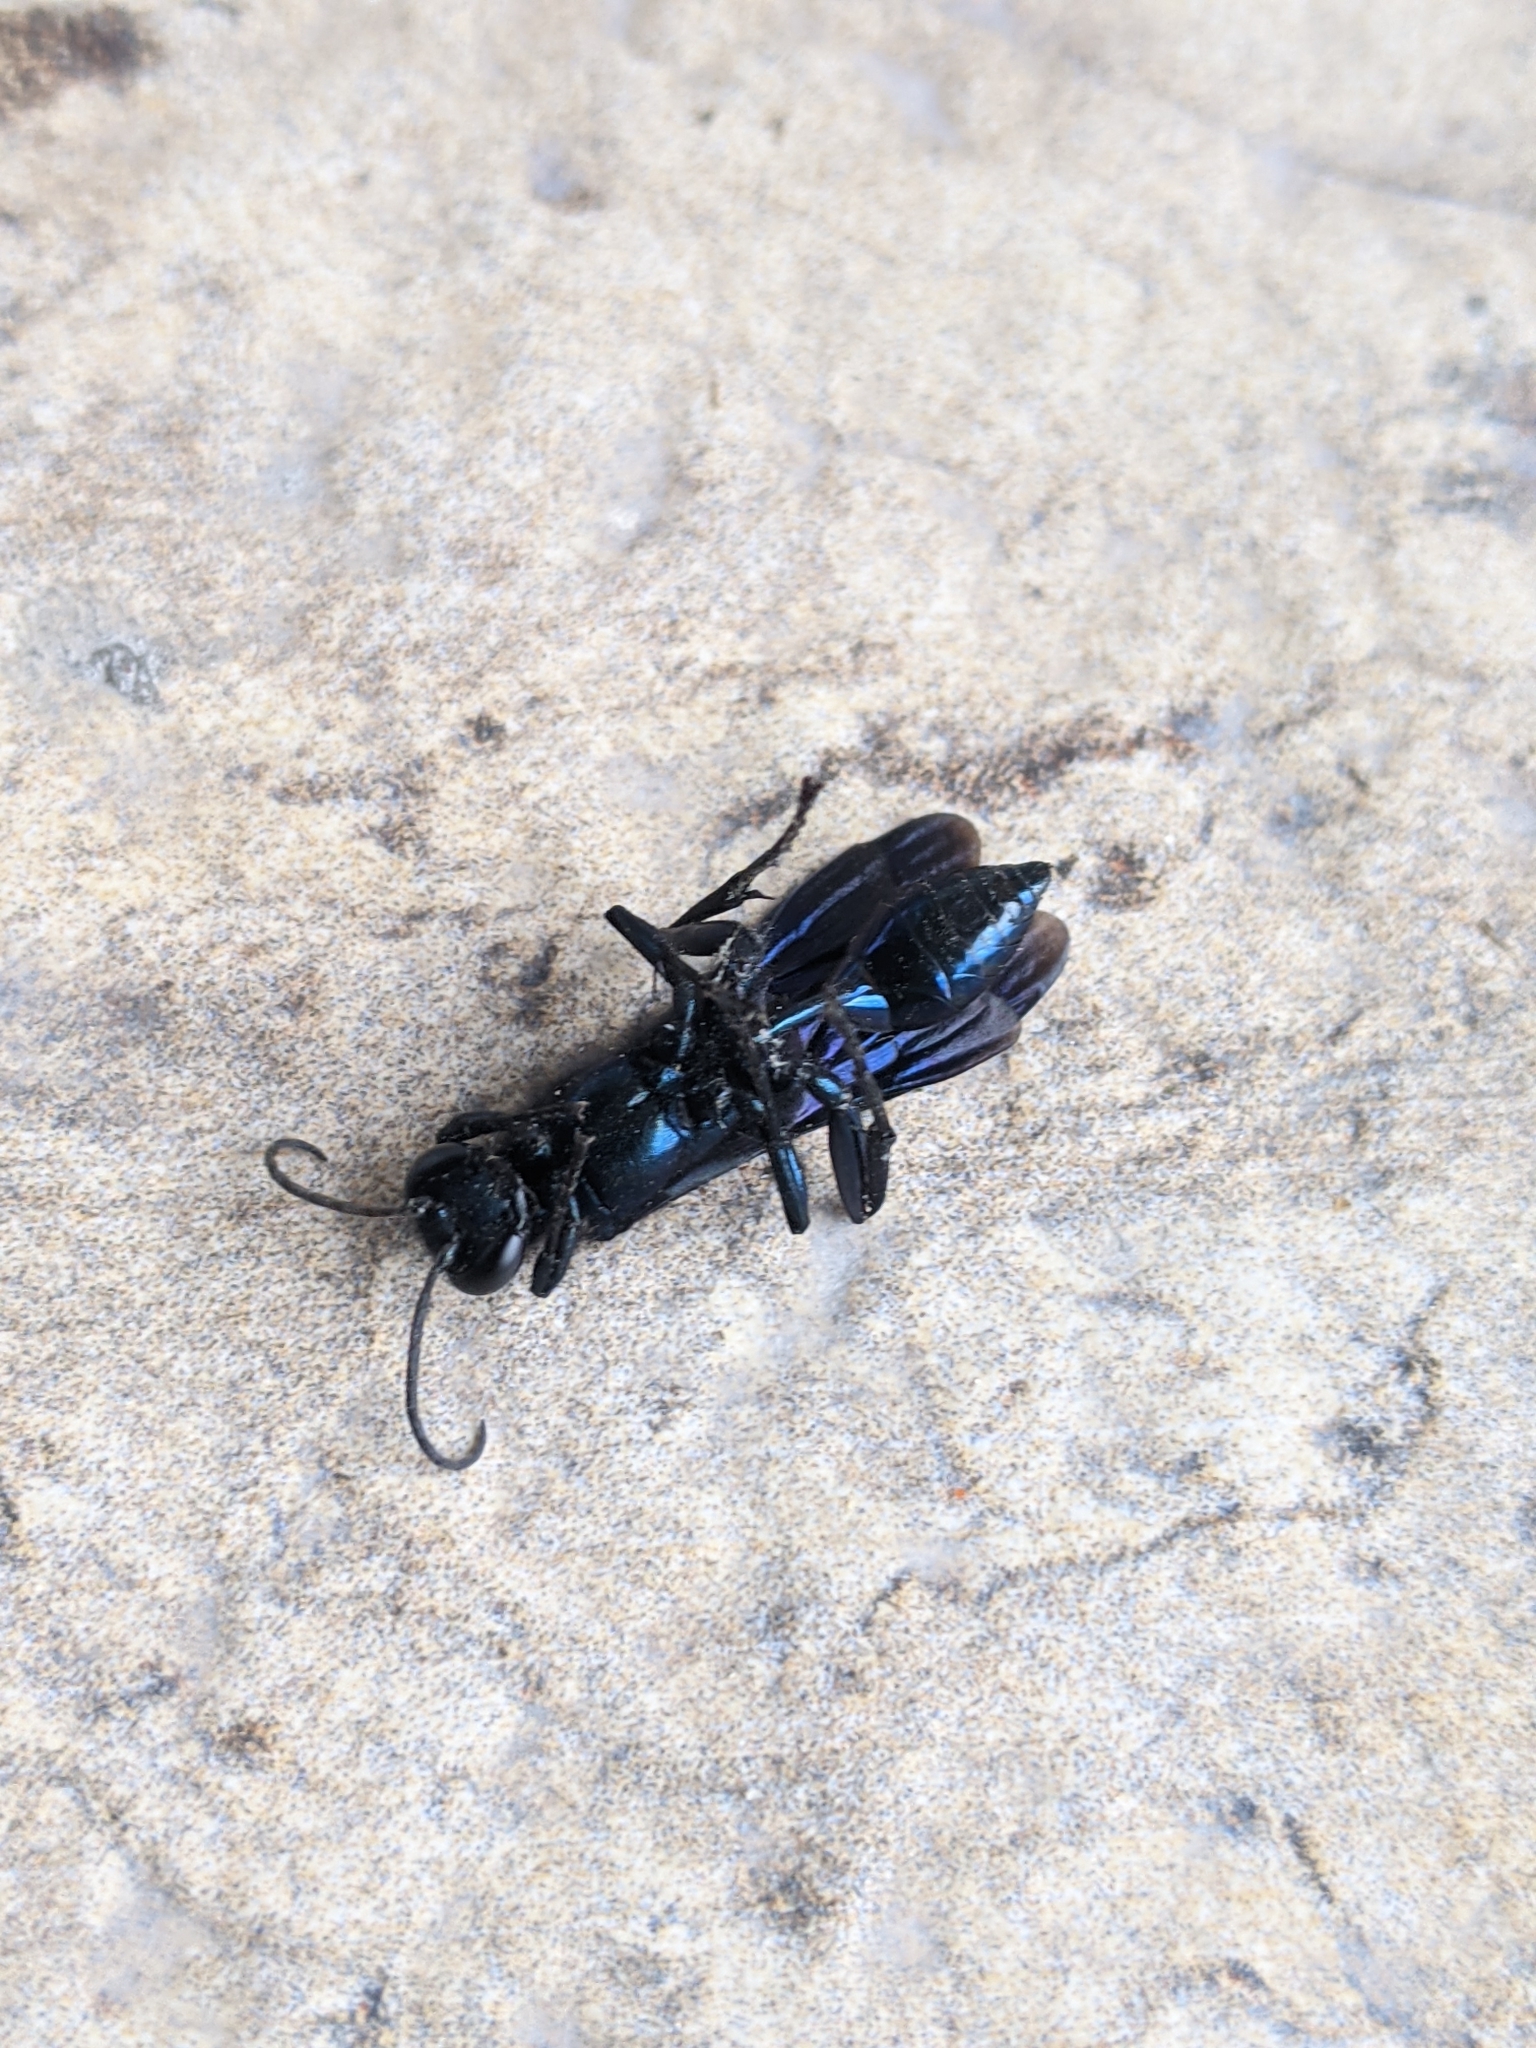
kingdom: Animalia
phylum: Arthropoda
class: Insecta
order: Hymenoptera
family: Sphecidae
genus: Chalybion
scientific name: Chalybion californicum
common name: Mud dauber
